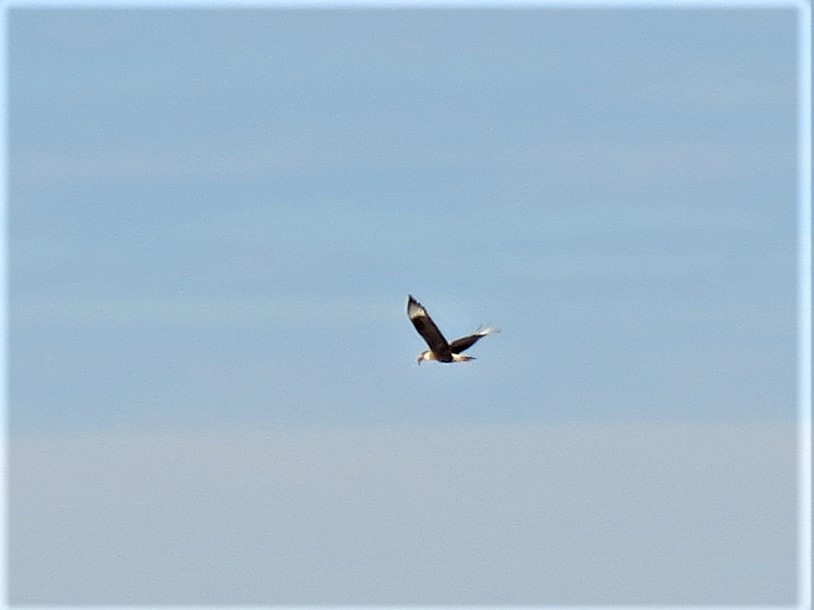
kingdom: Animalia
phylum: Chordata
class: Aves
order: Falconiformes
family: Falconidae
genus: Caracara
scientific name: Caracara plancus
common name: Southern caracara
